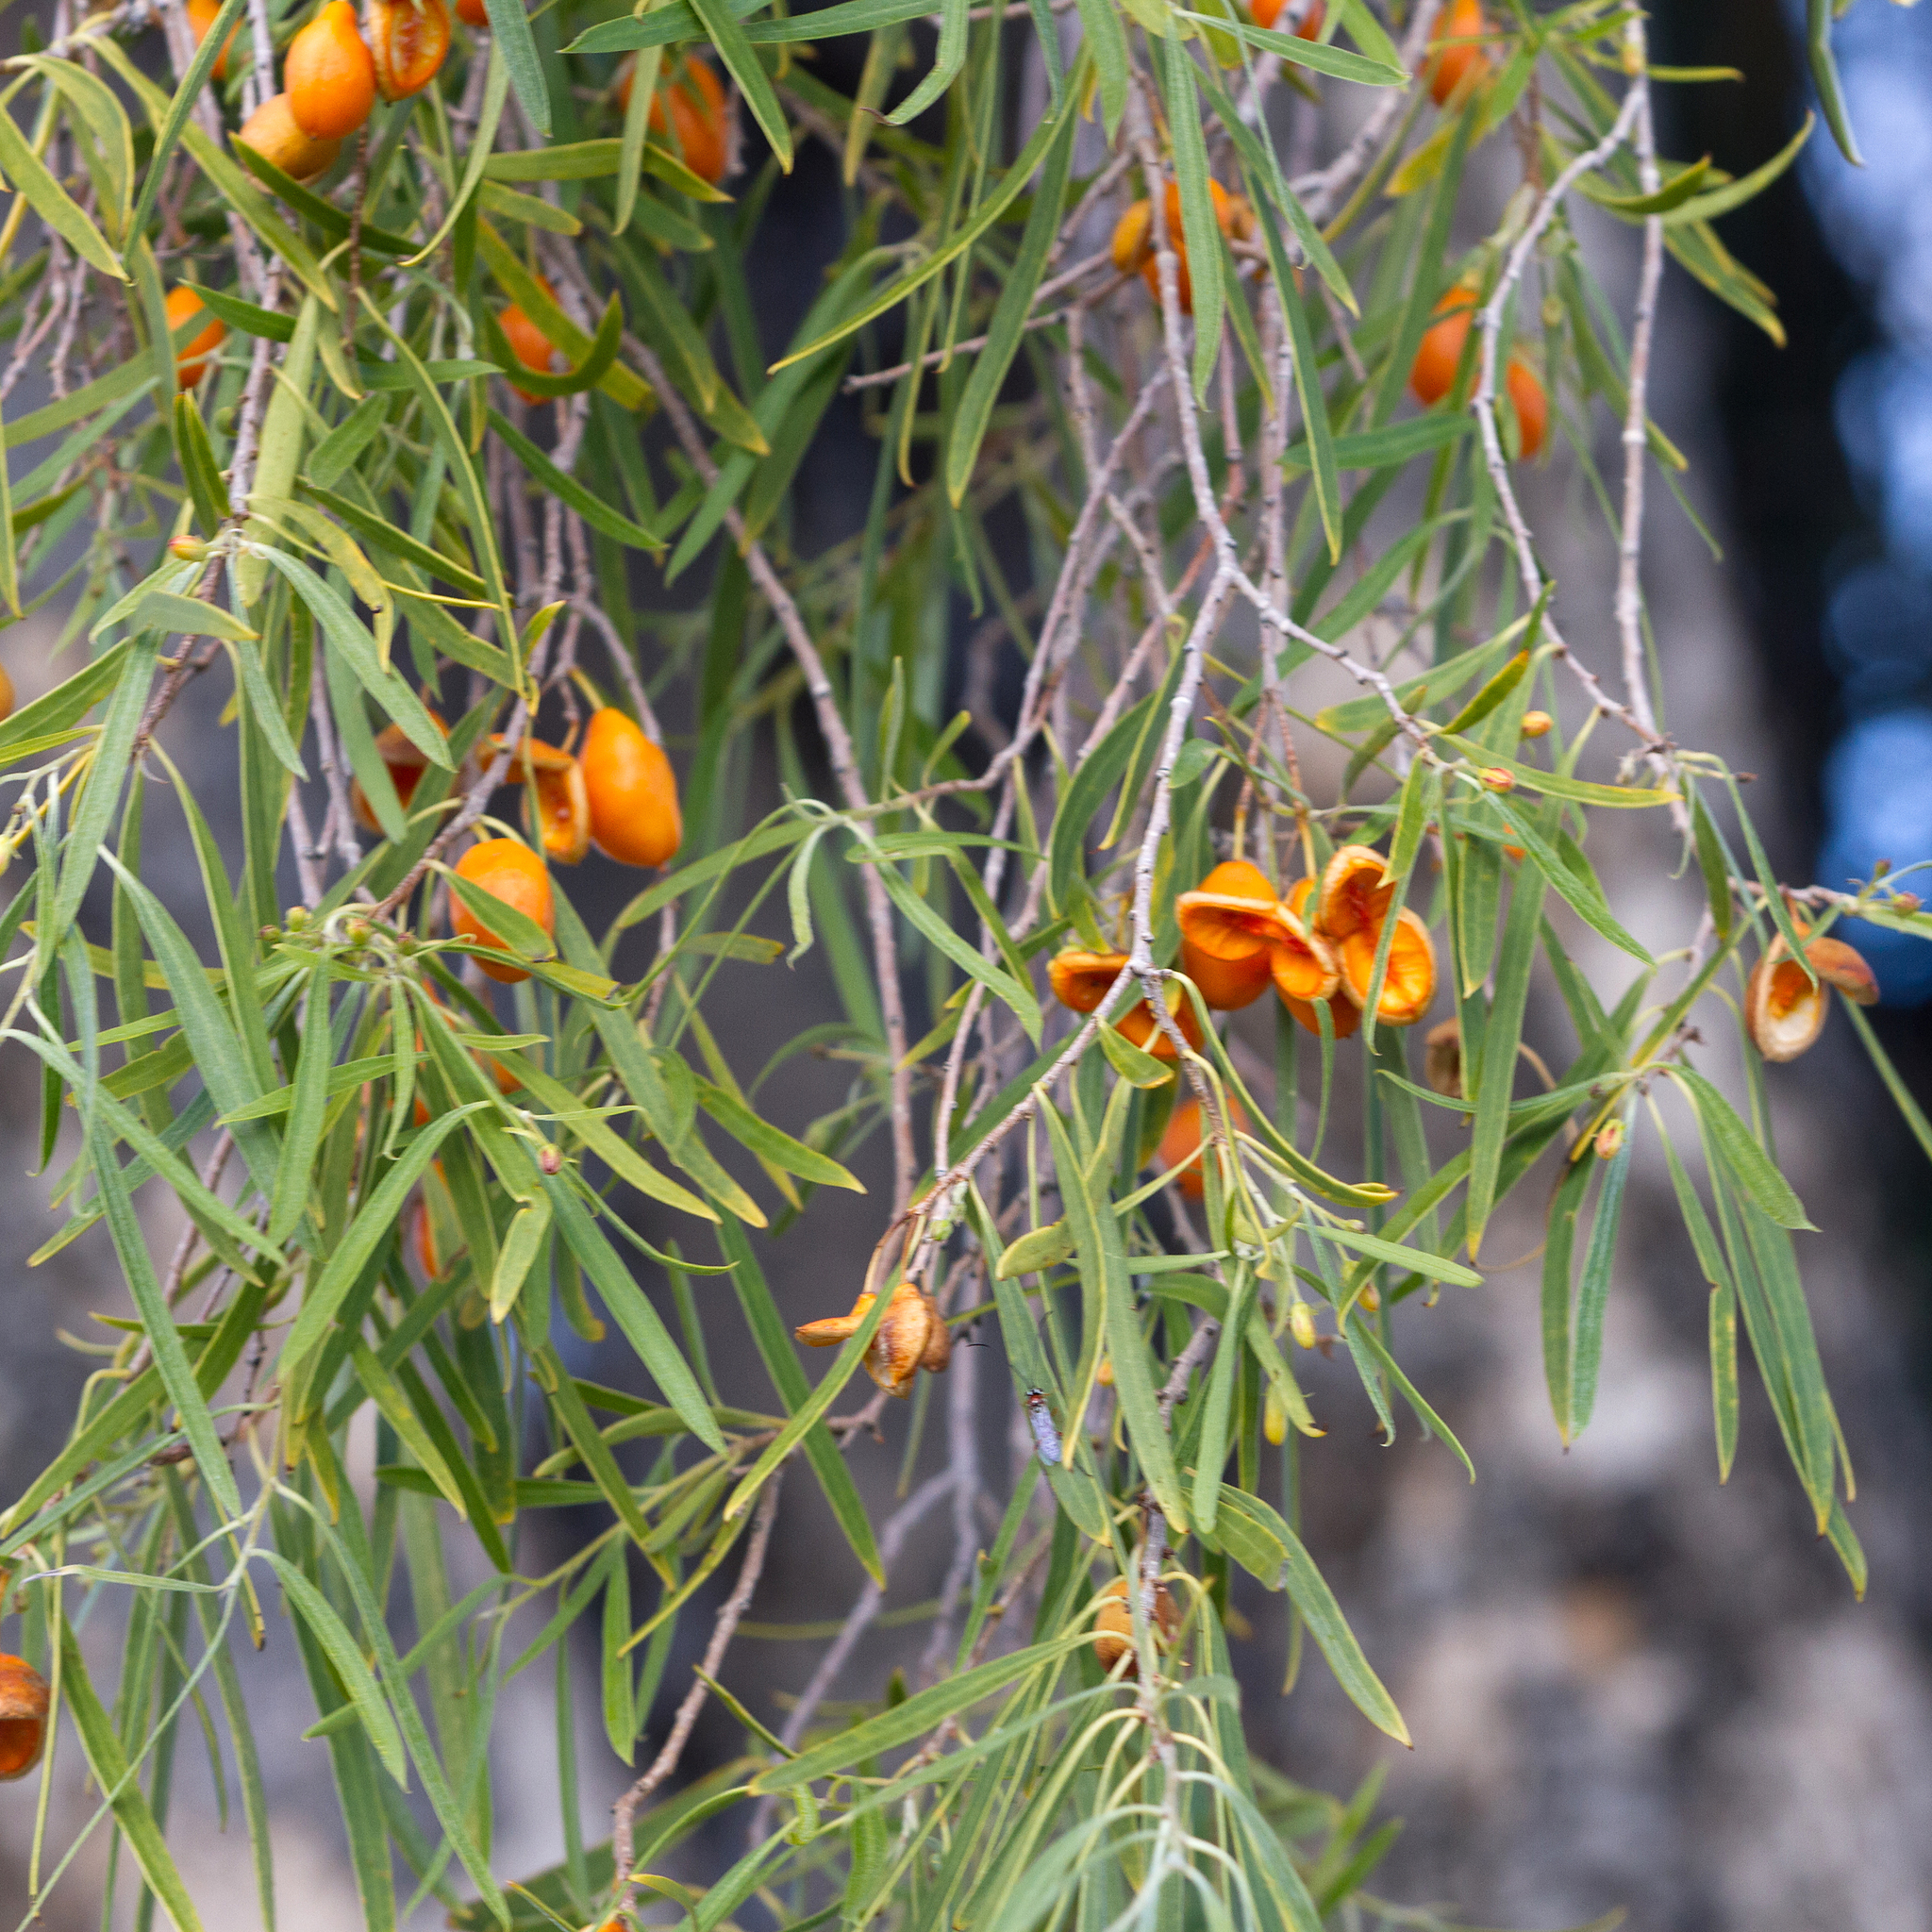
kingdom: Plantae
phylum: Tracheophyta
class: Magnoliopsida
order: Apiales
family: Pittosporaceae
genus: Pittosporum
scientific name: Pittosporum angustifolium
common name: Weeping pittosporum
